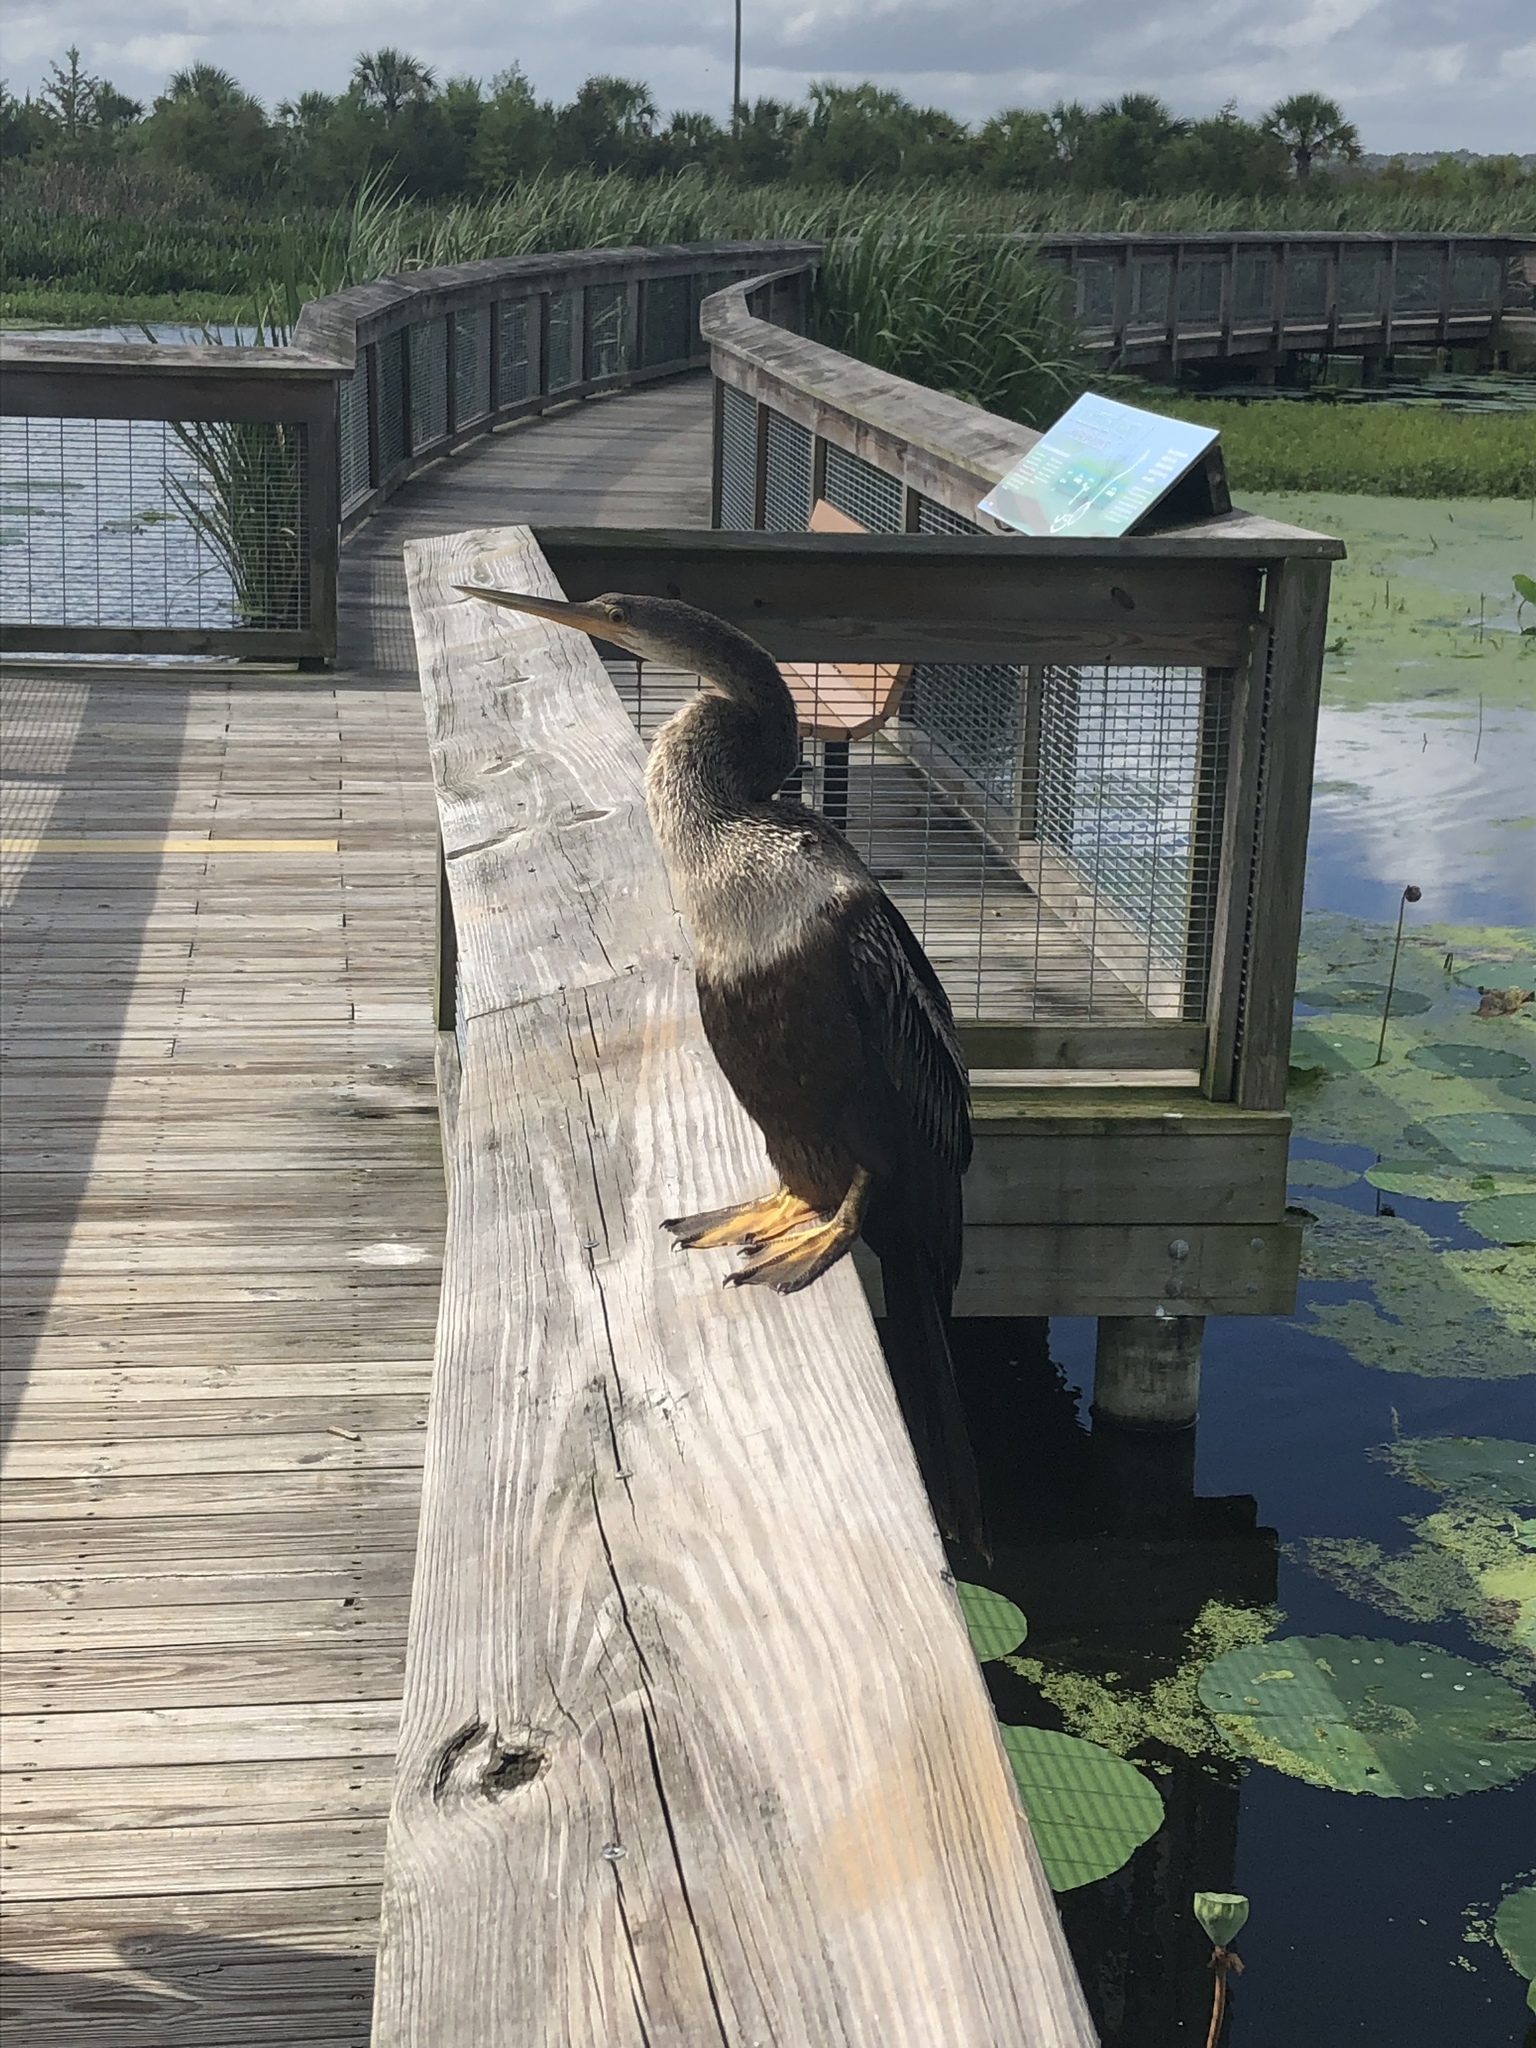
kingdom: Animalia
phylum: Chordata
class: Aves
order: Suliformes
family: Anhingidae
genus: Anhinga
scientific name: Anhinga anhinga
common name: Anhinga
